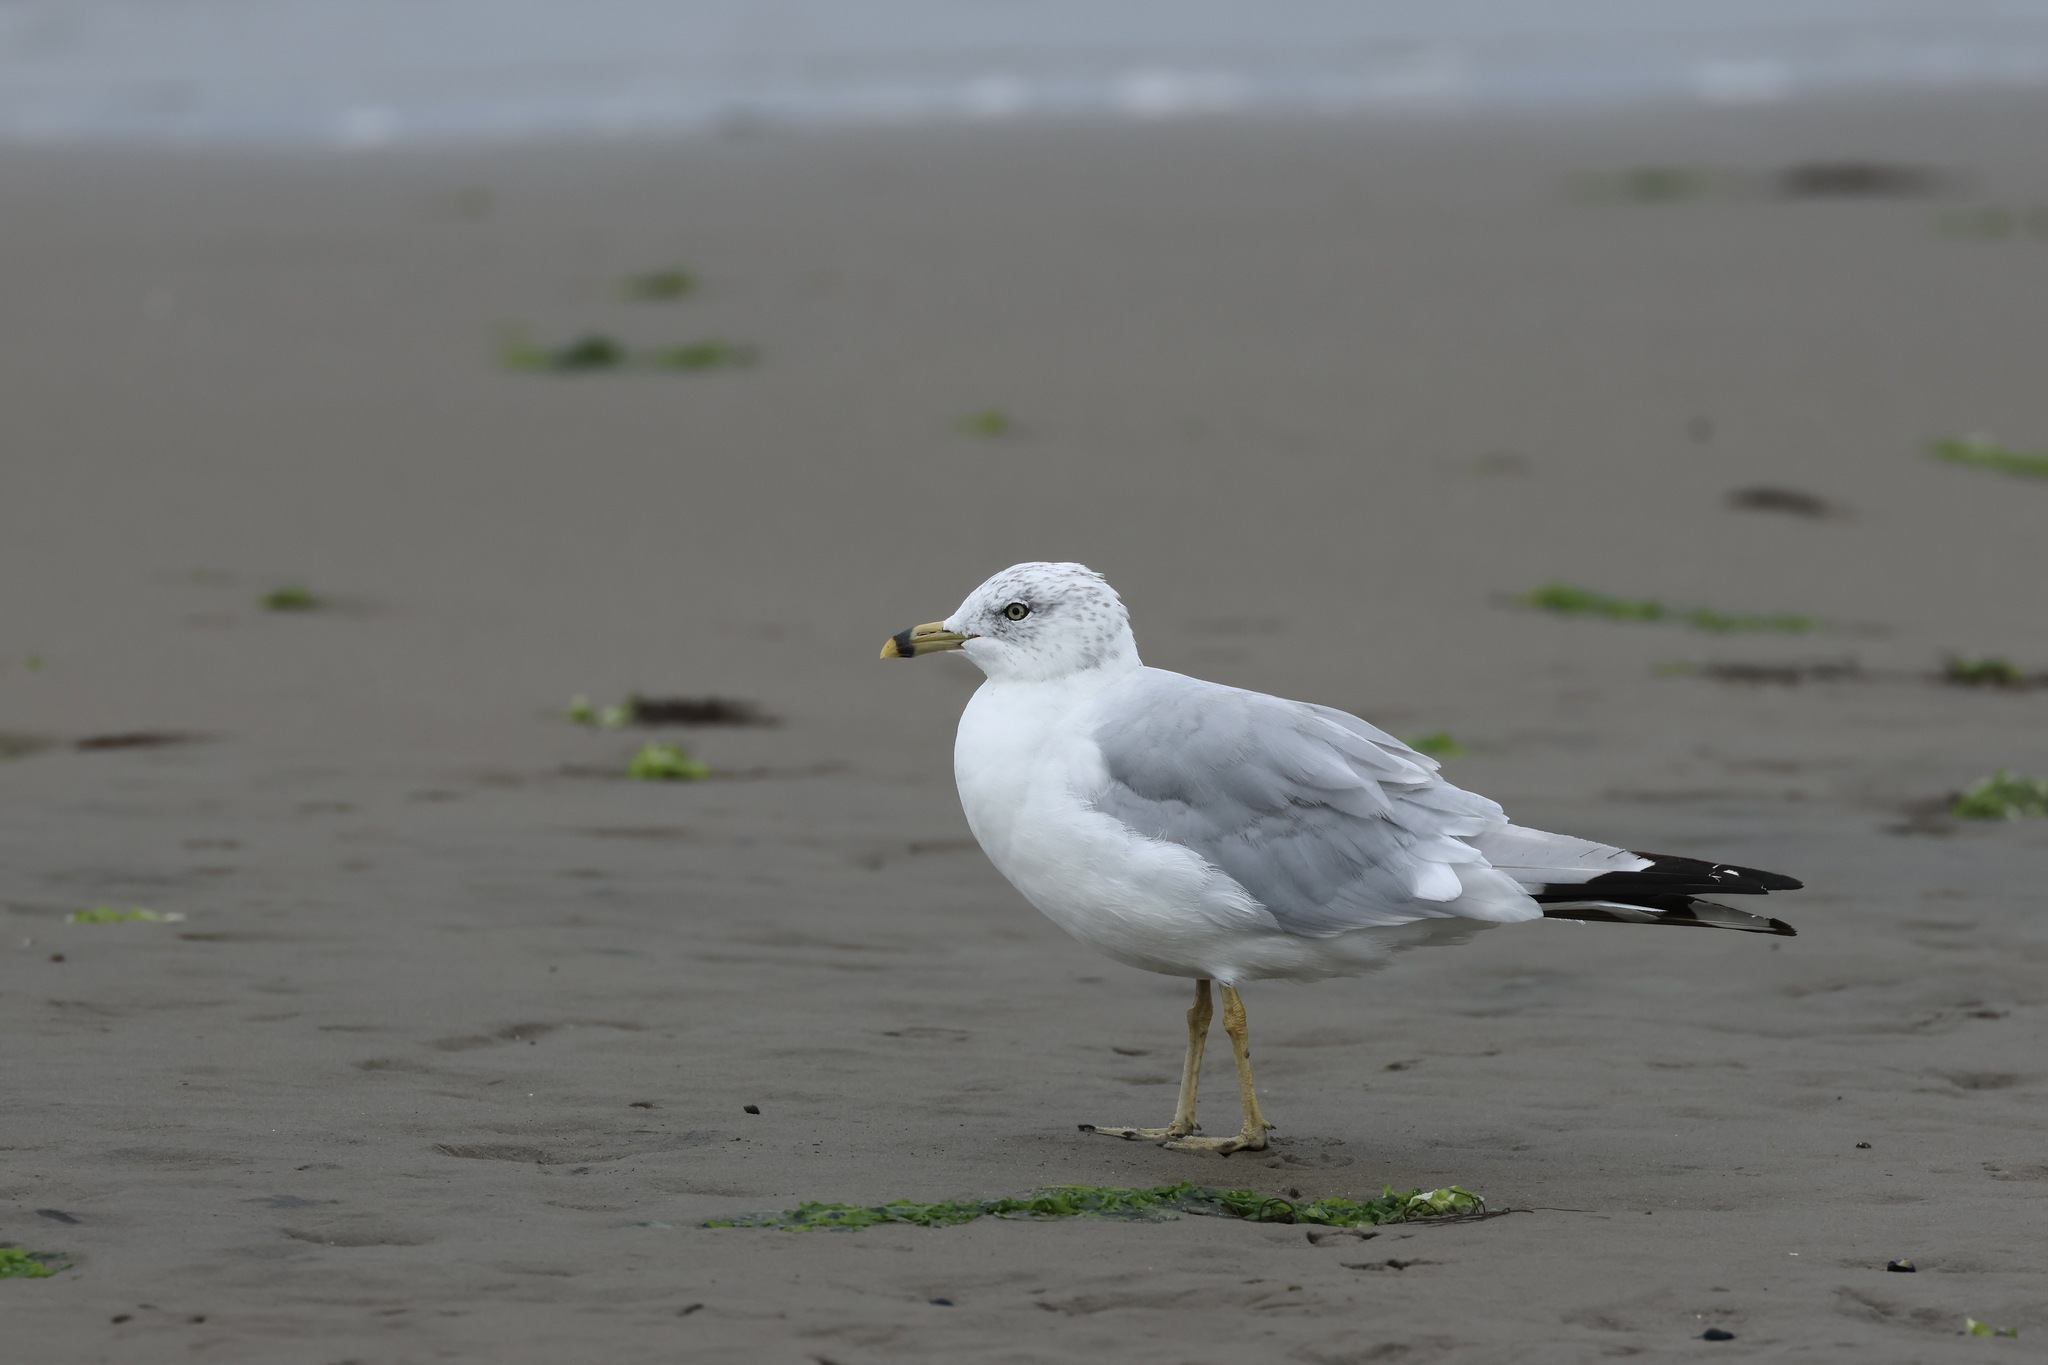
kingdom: Animalia
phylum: Chordata
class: Aves
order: Charadriiformes
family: Laridae
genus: Larus
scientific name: Larus delawarensis
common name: Ring-billed gull
